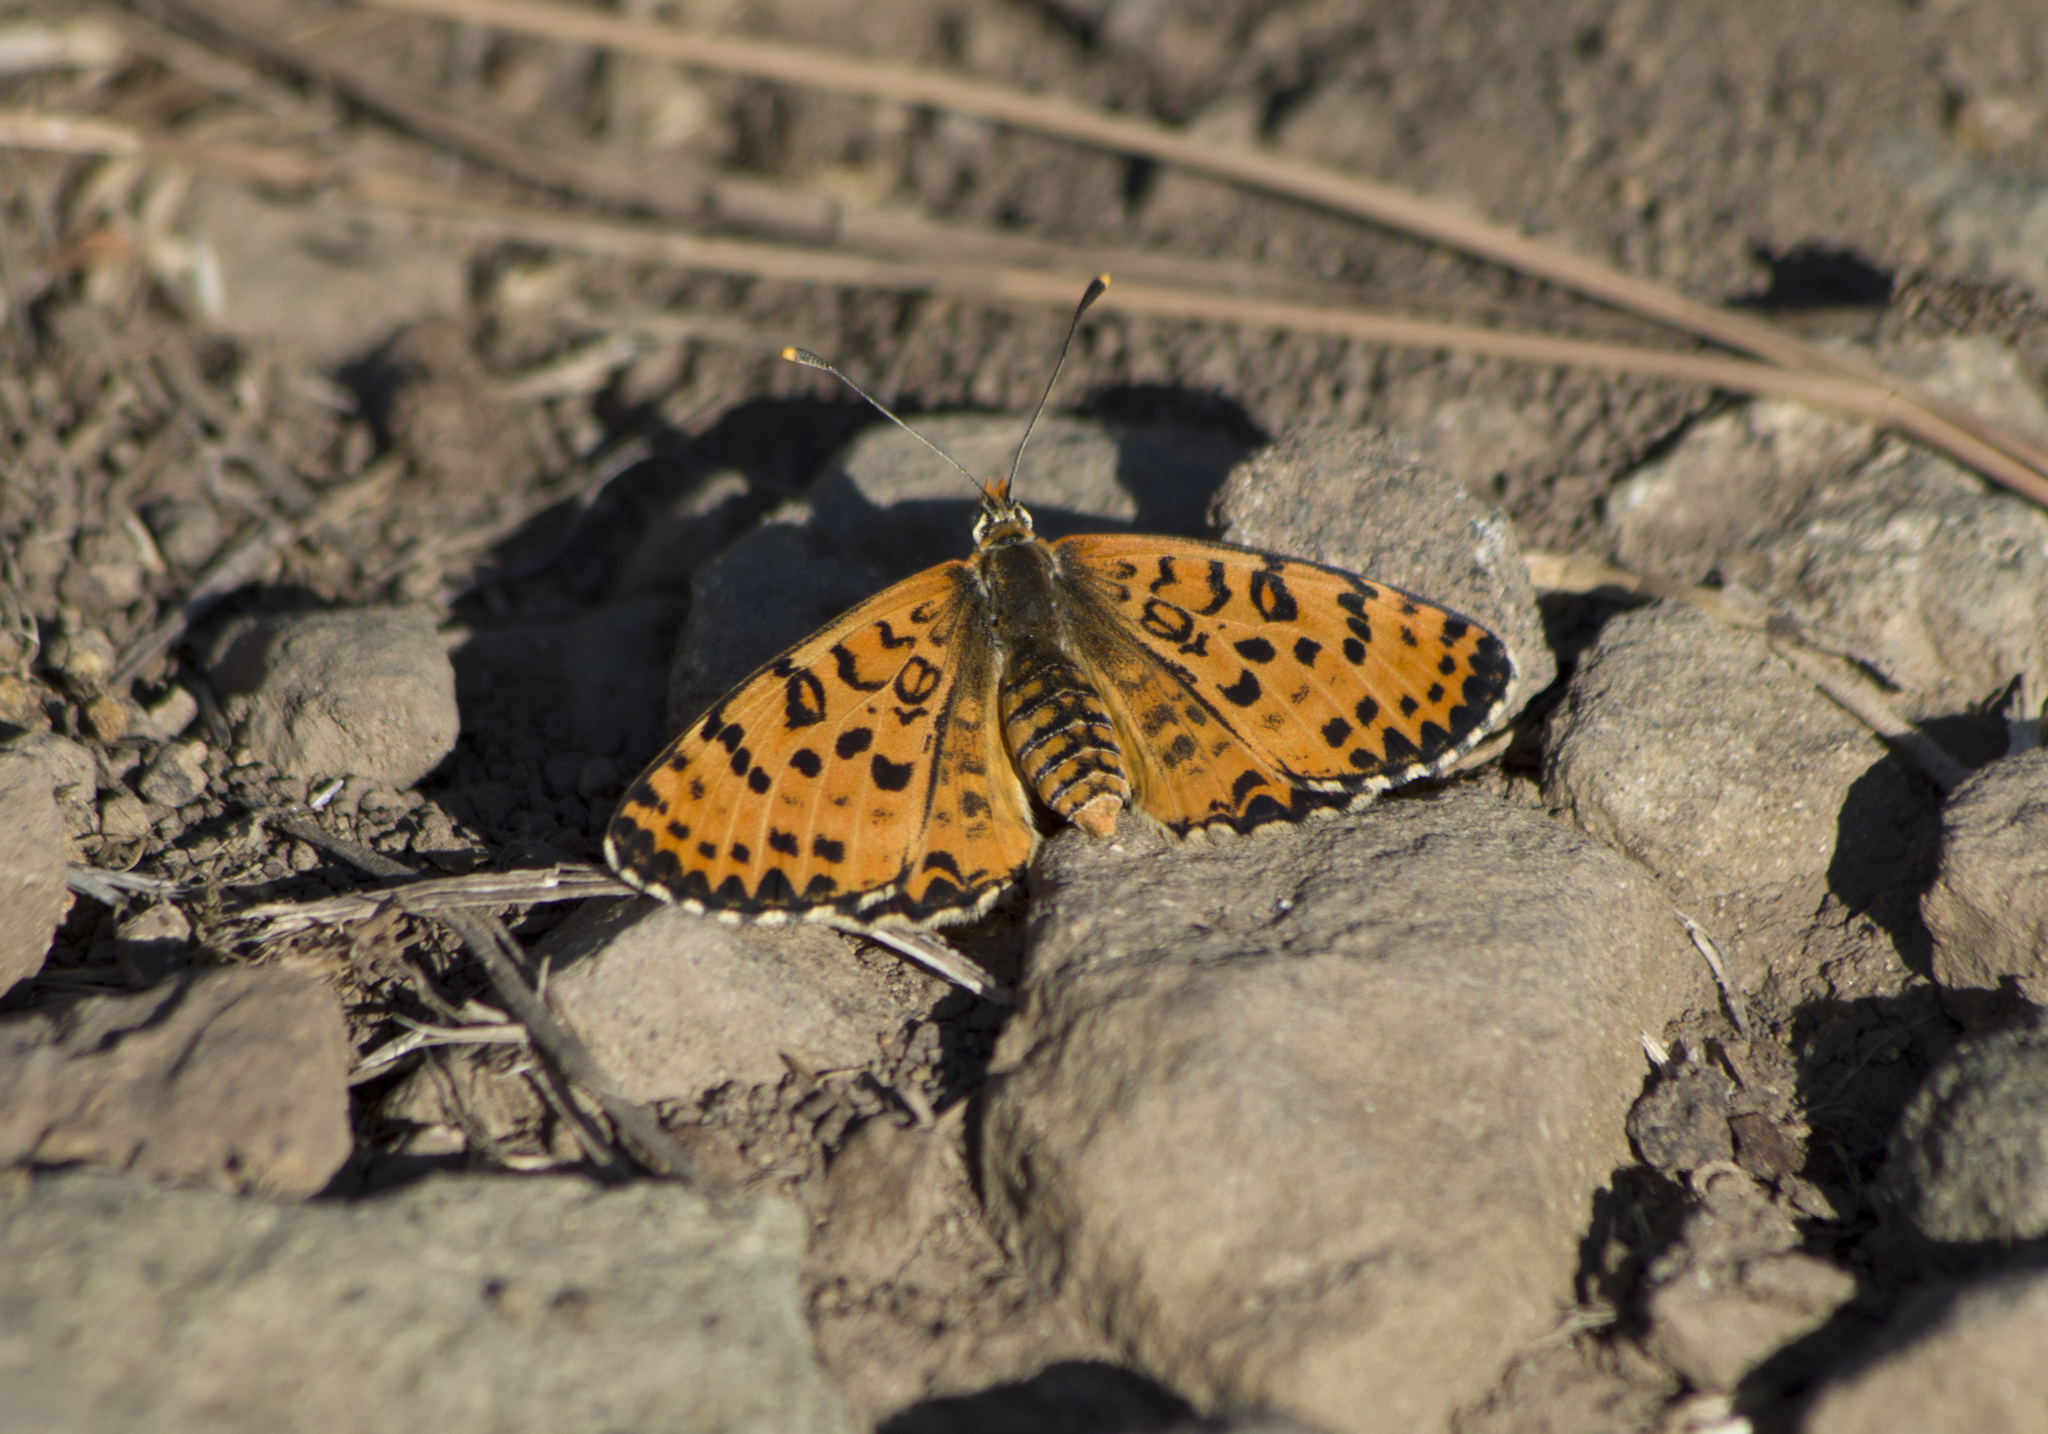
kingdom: Animalia
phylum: Arthropoda
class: Insecta
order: Lepidoptera
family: Nymphalidae
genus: Melitaea
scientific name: Melitaea didyma
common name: Spotted fritillary
